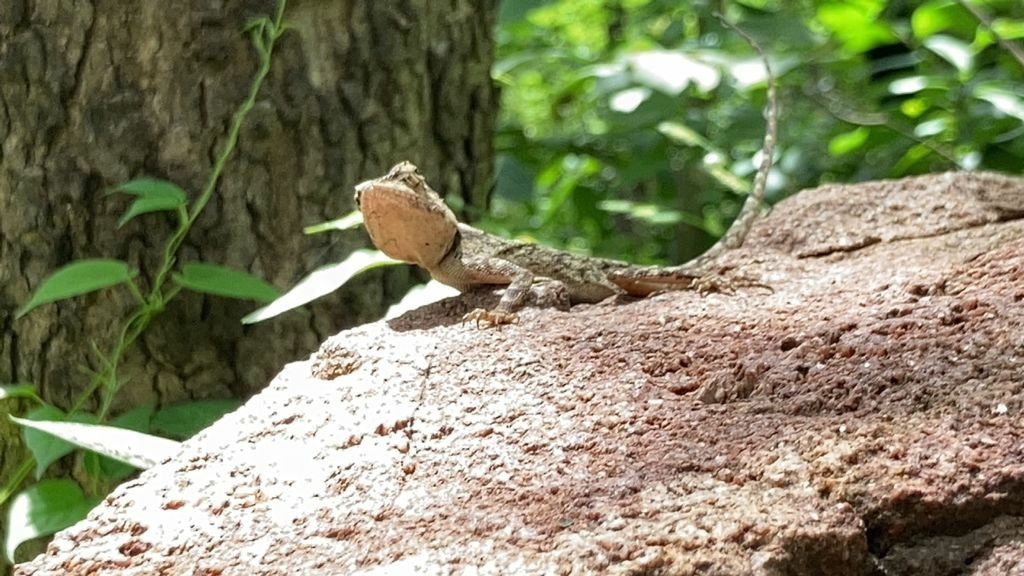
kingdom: Animalia
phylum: Chordata
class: Squamata
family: Agamidae
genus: Calotes
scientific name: Calotes versicolor
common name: Oriental garden lizard
